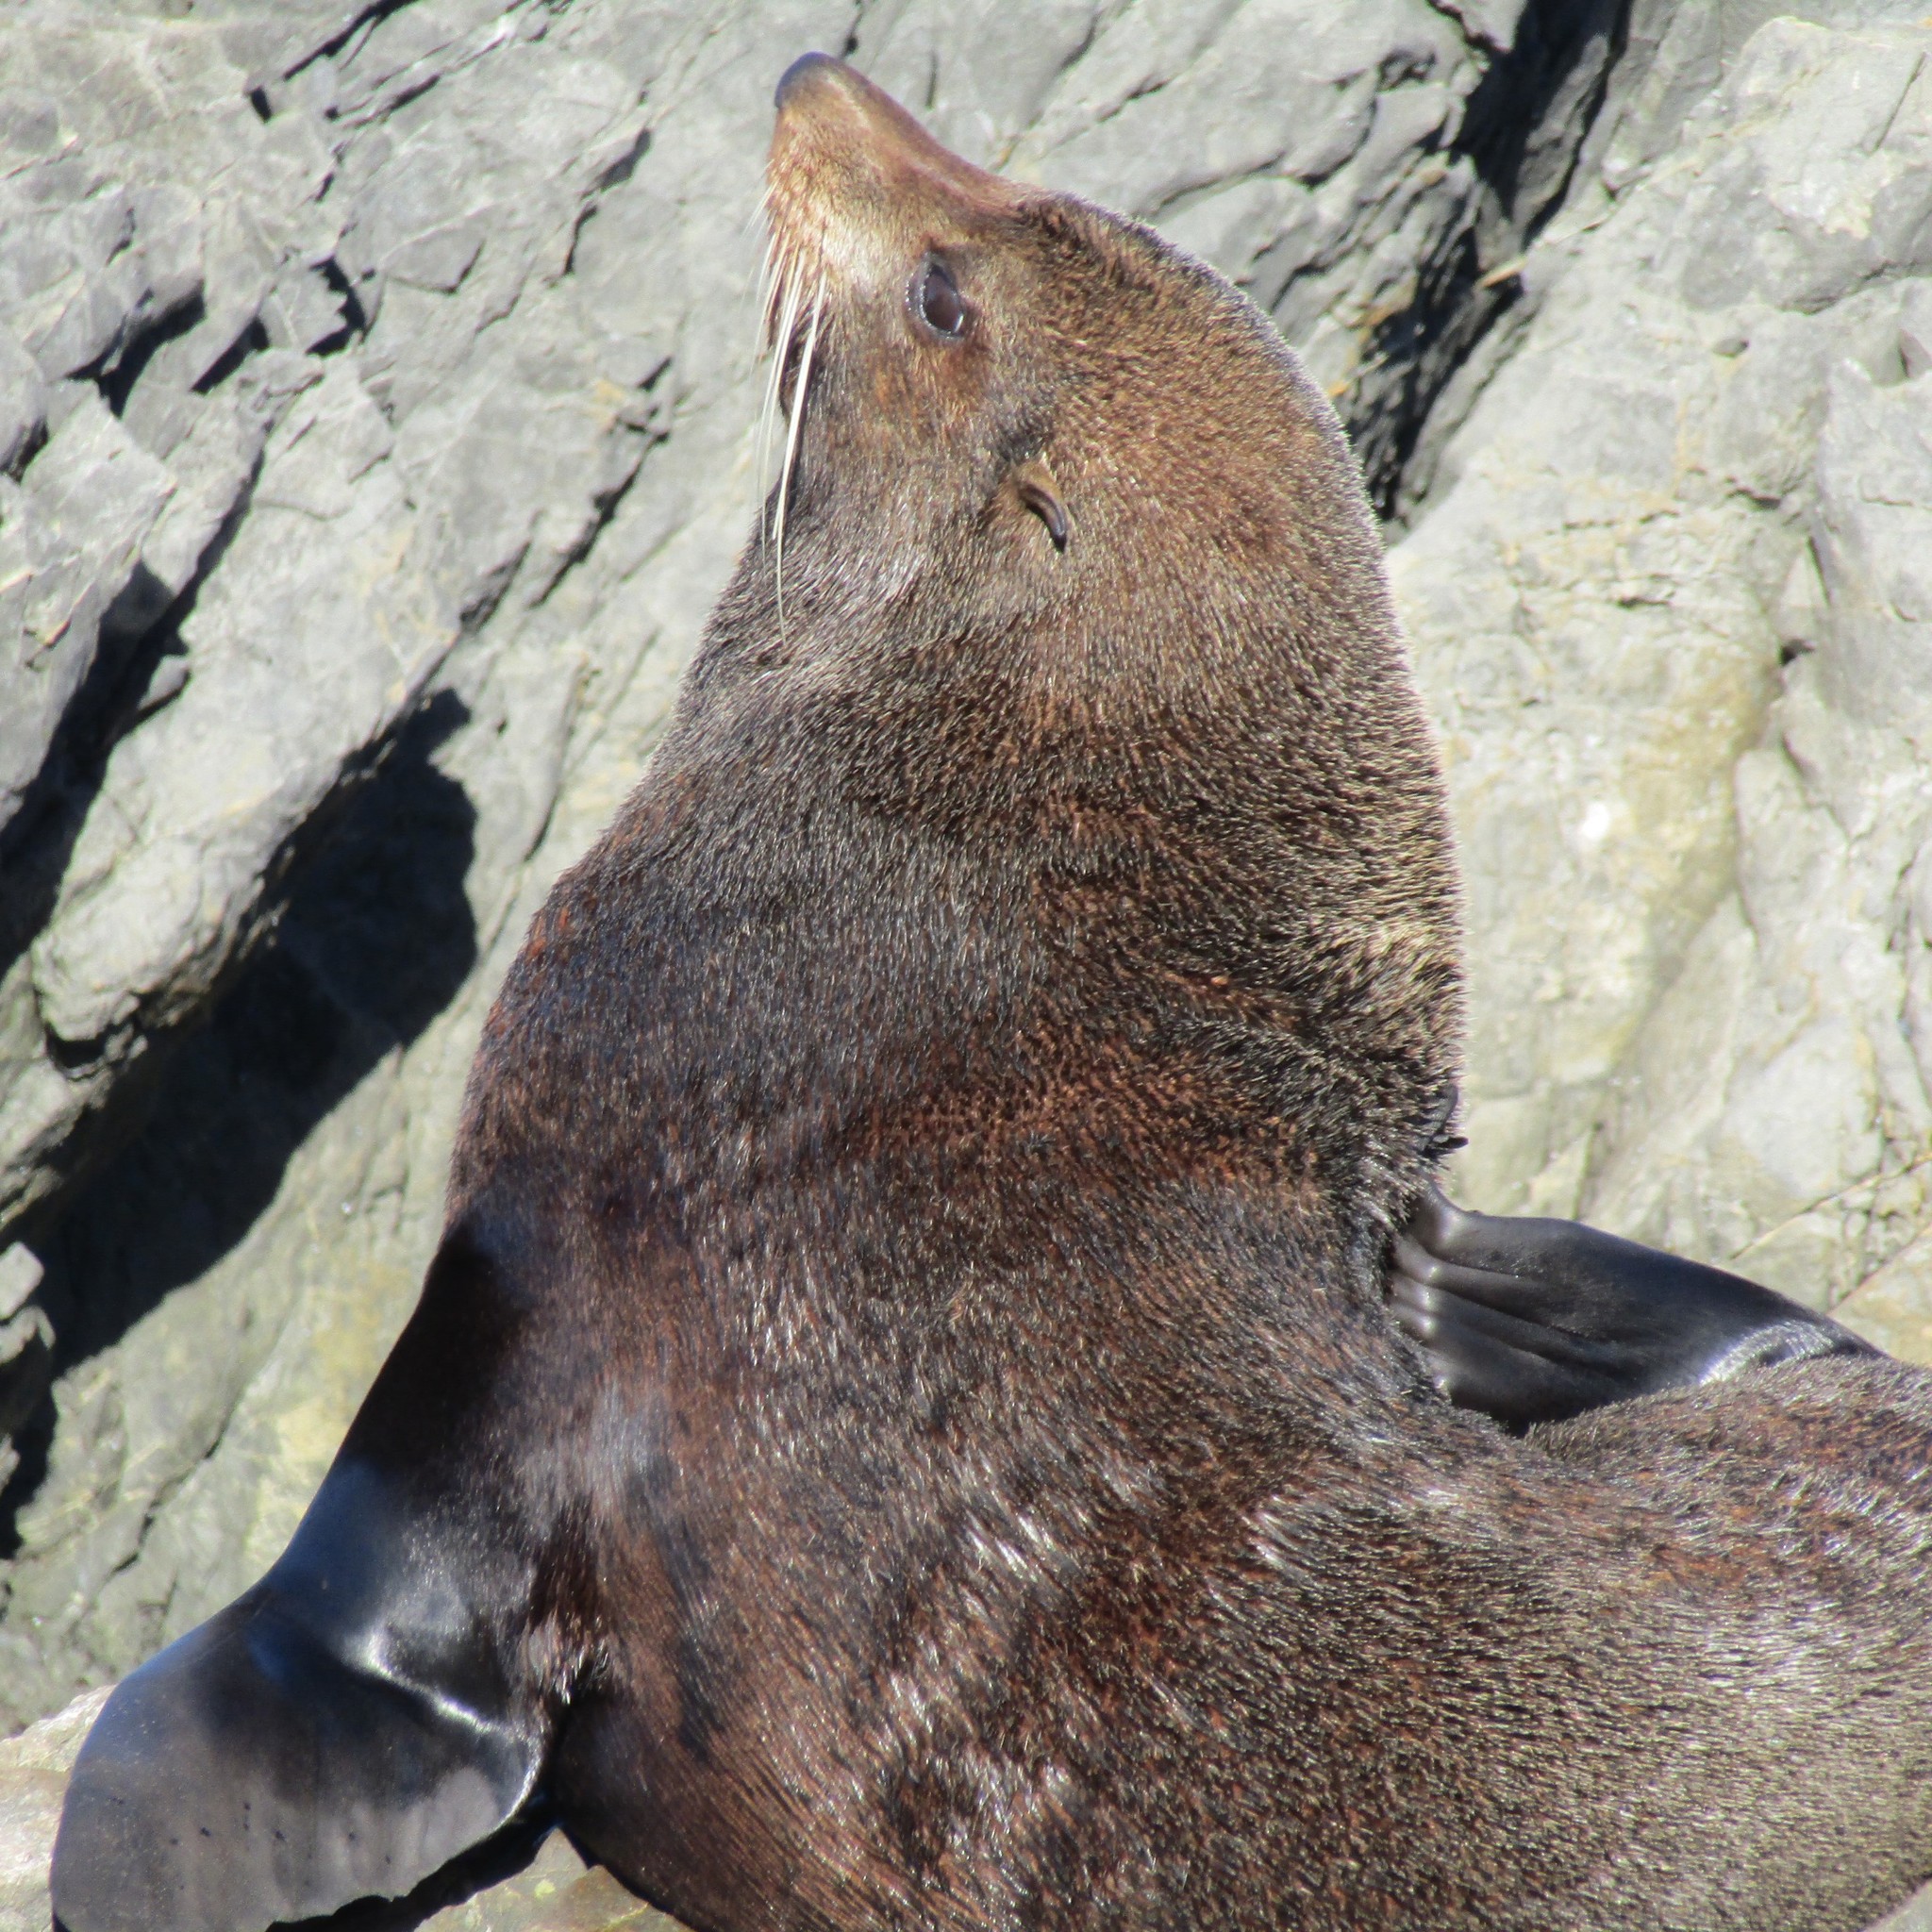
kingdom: Animalia
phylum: Chordata
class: Mammalia
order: Carnivora
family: Otariidae
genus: Arctocephalus
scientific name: Arctocephalus forsteri
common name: New zealand fur seal
